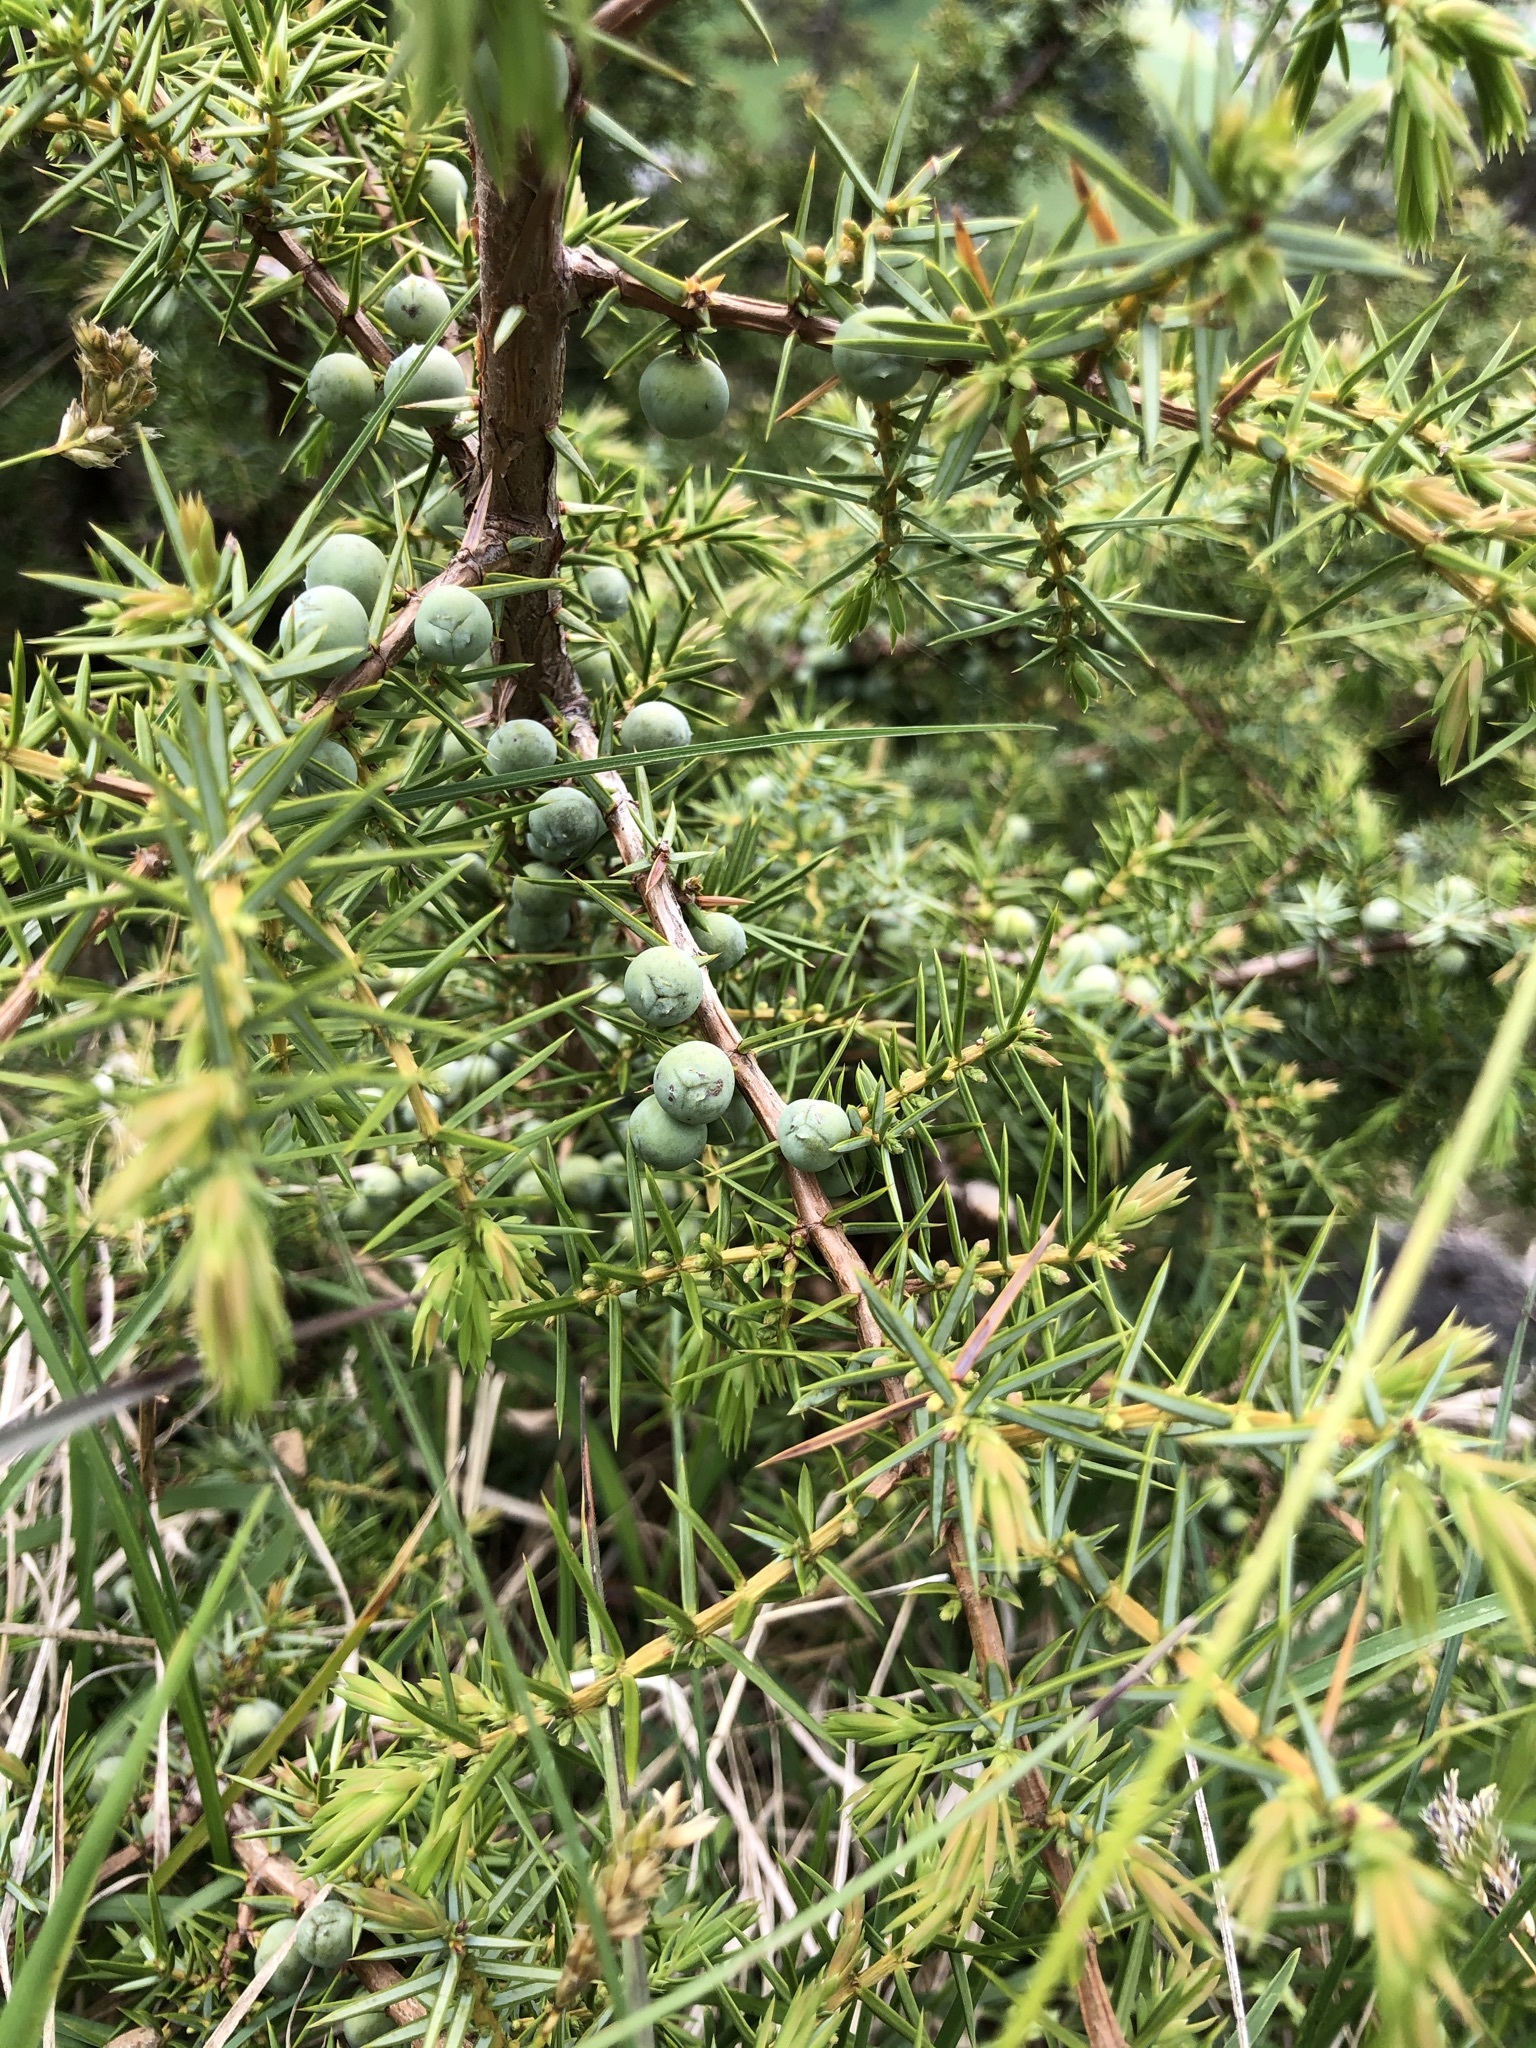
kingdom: Plantae
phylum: Tracheophyta
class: Pinopsida
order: Pinales
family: Cupressaceae
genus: Juniperus
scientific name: Juniperus communis
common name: Common juniper
